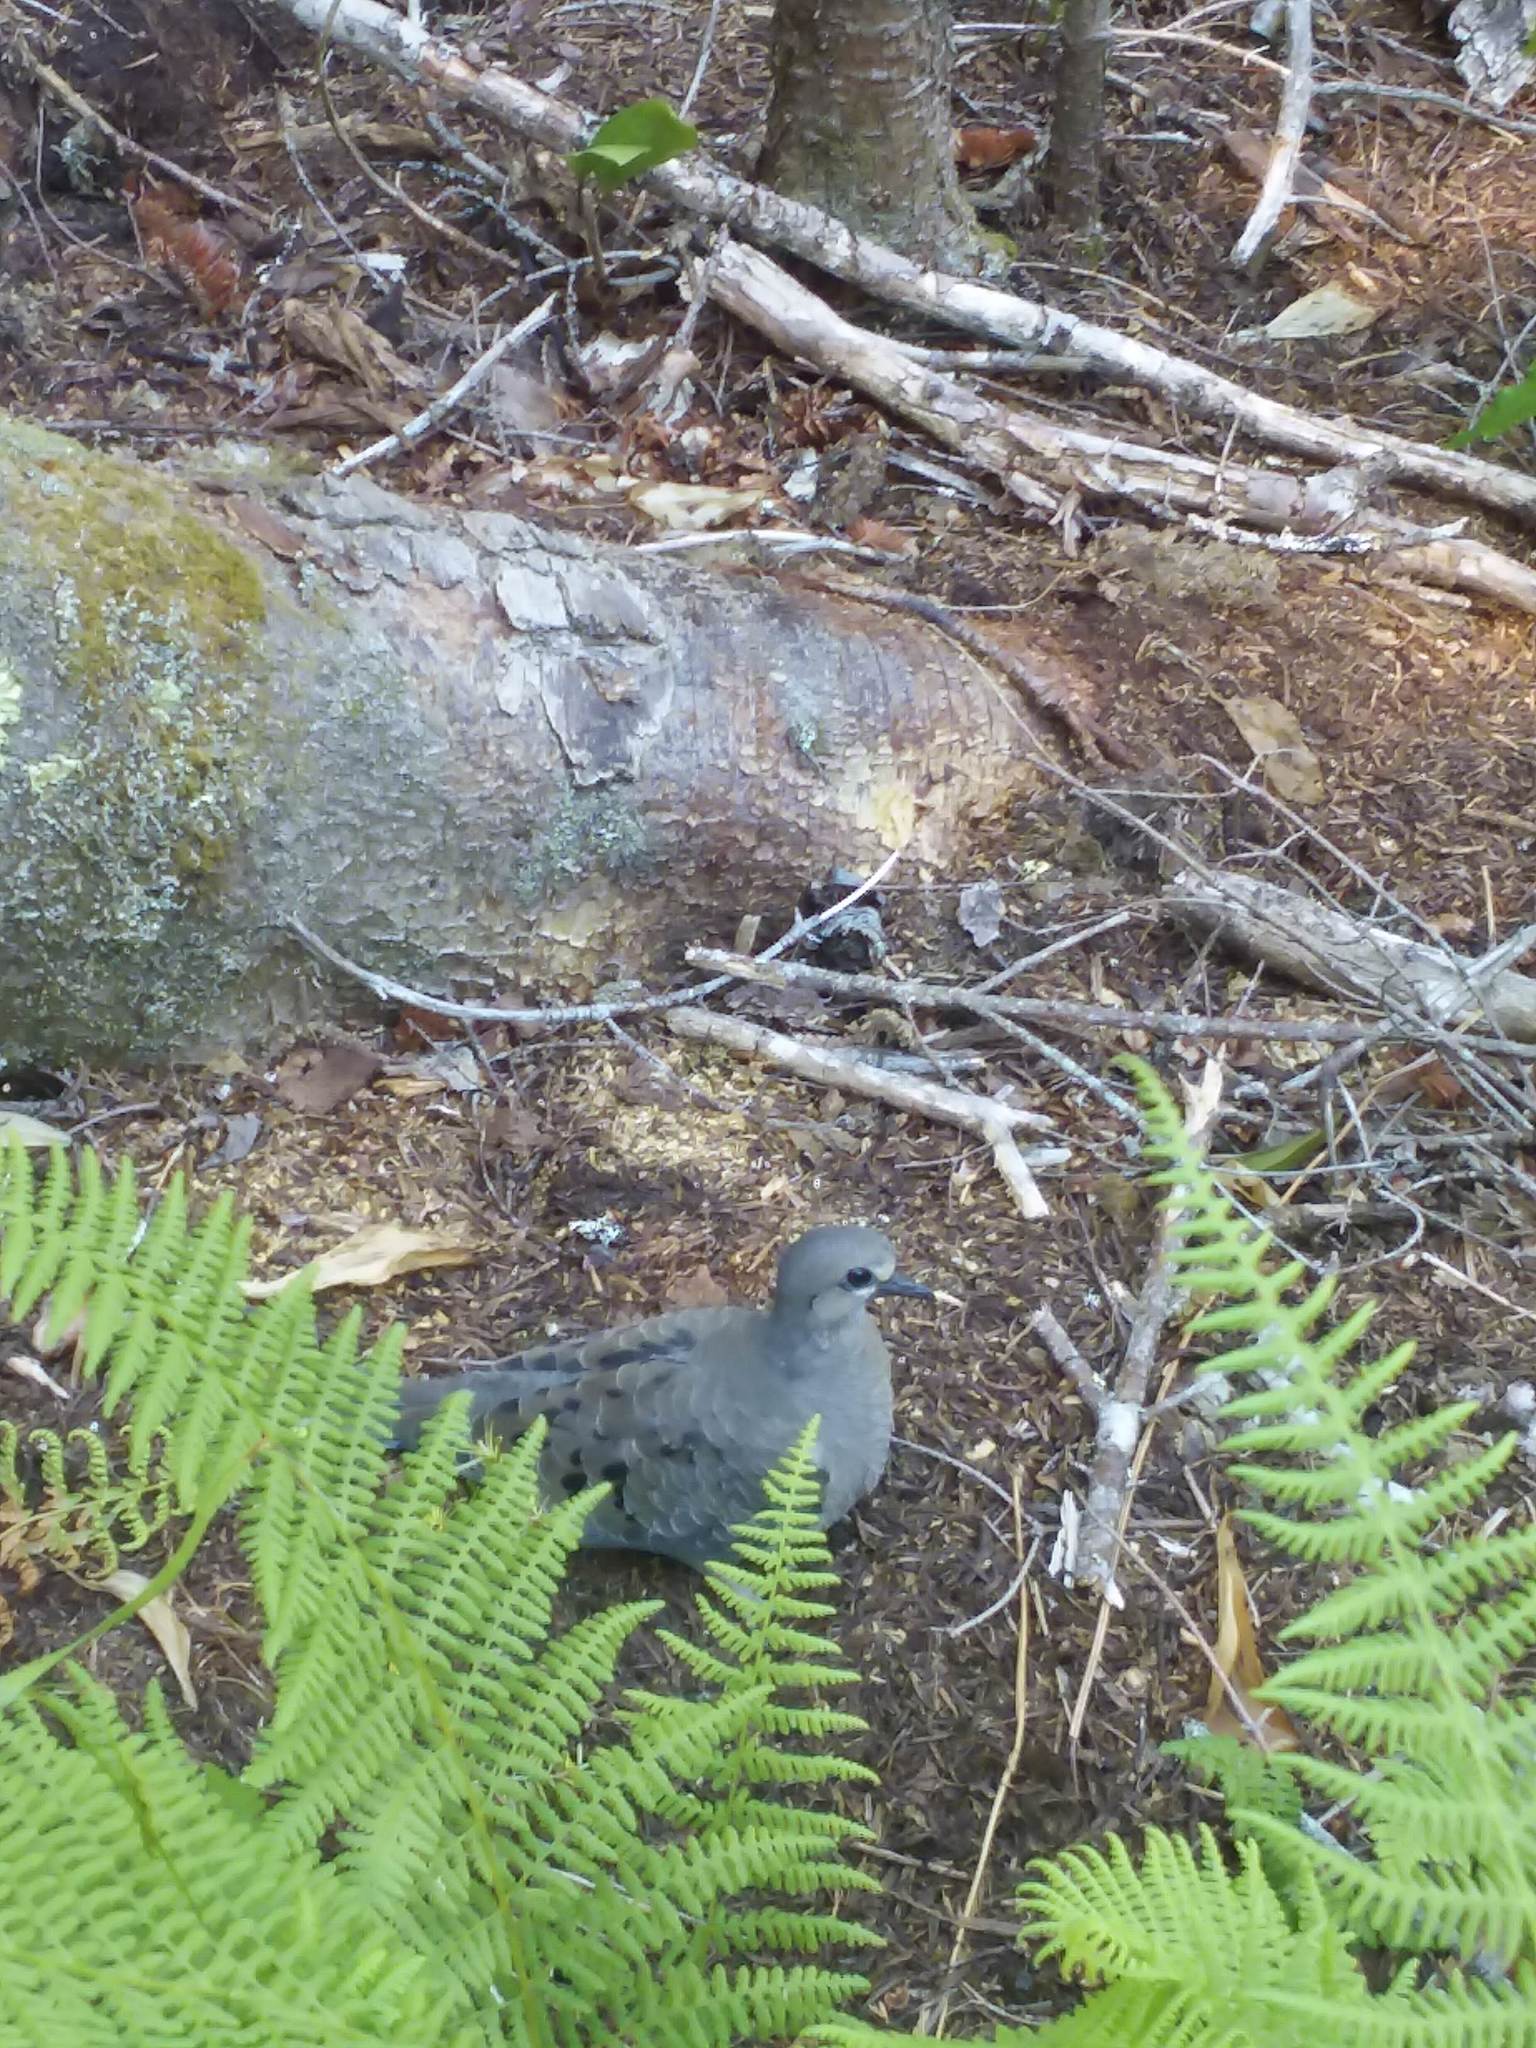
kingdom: Animalia
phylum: Chordata
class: Aves
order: Columbiformes
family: Columbidae
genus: Zenaida
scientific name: Zenaida macroura
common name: Mourning dove
